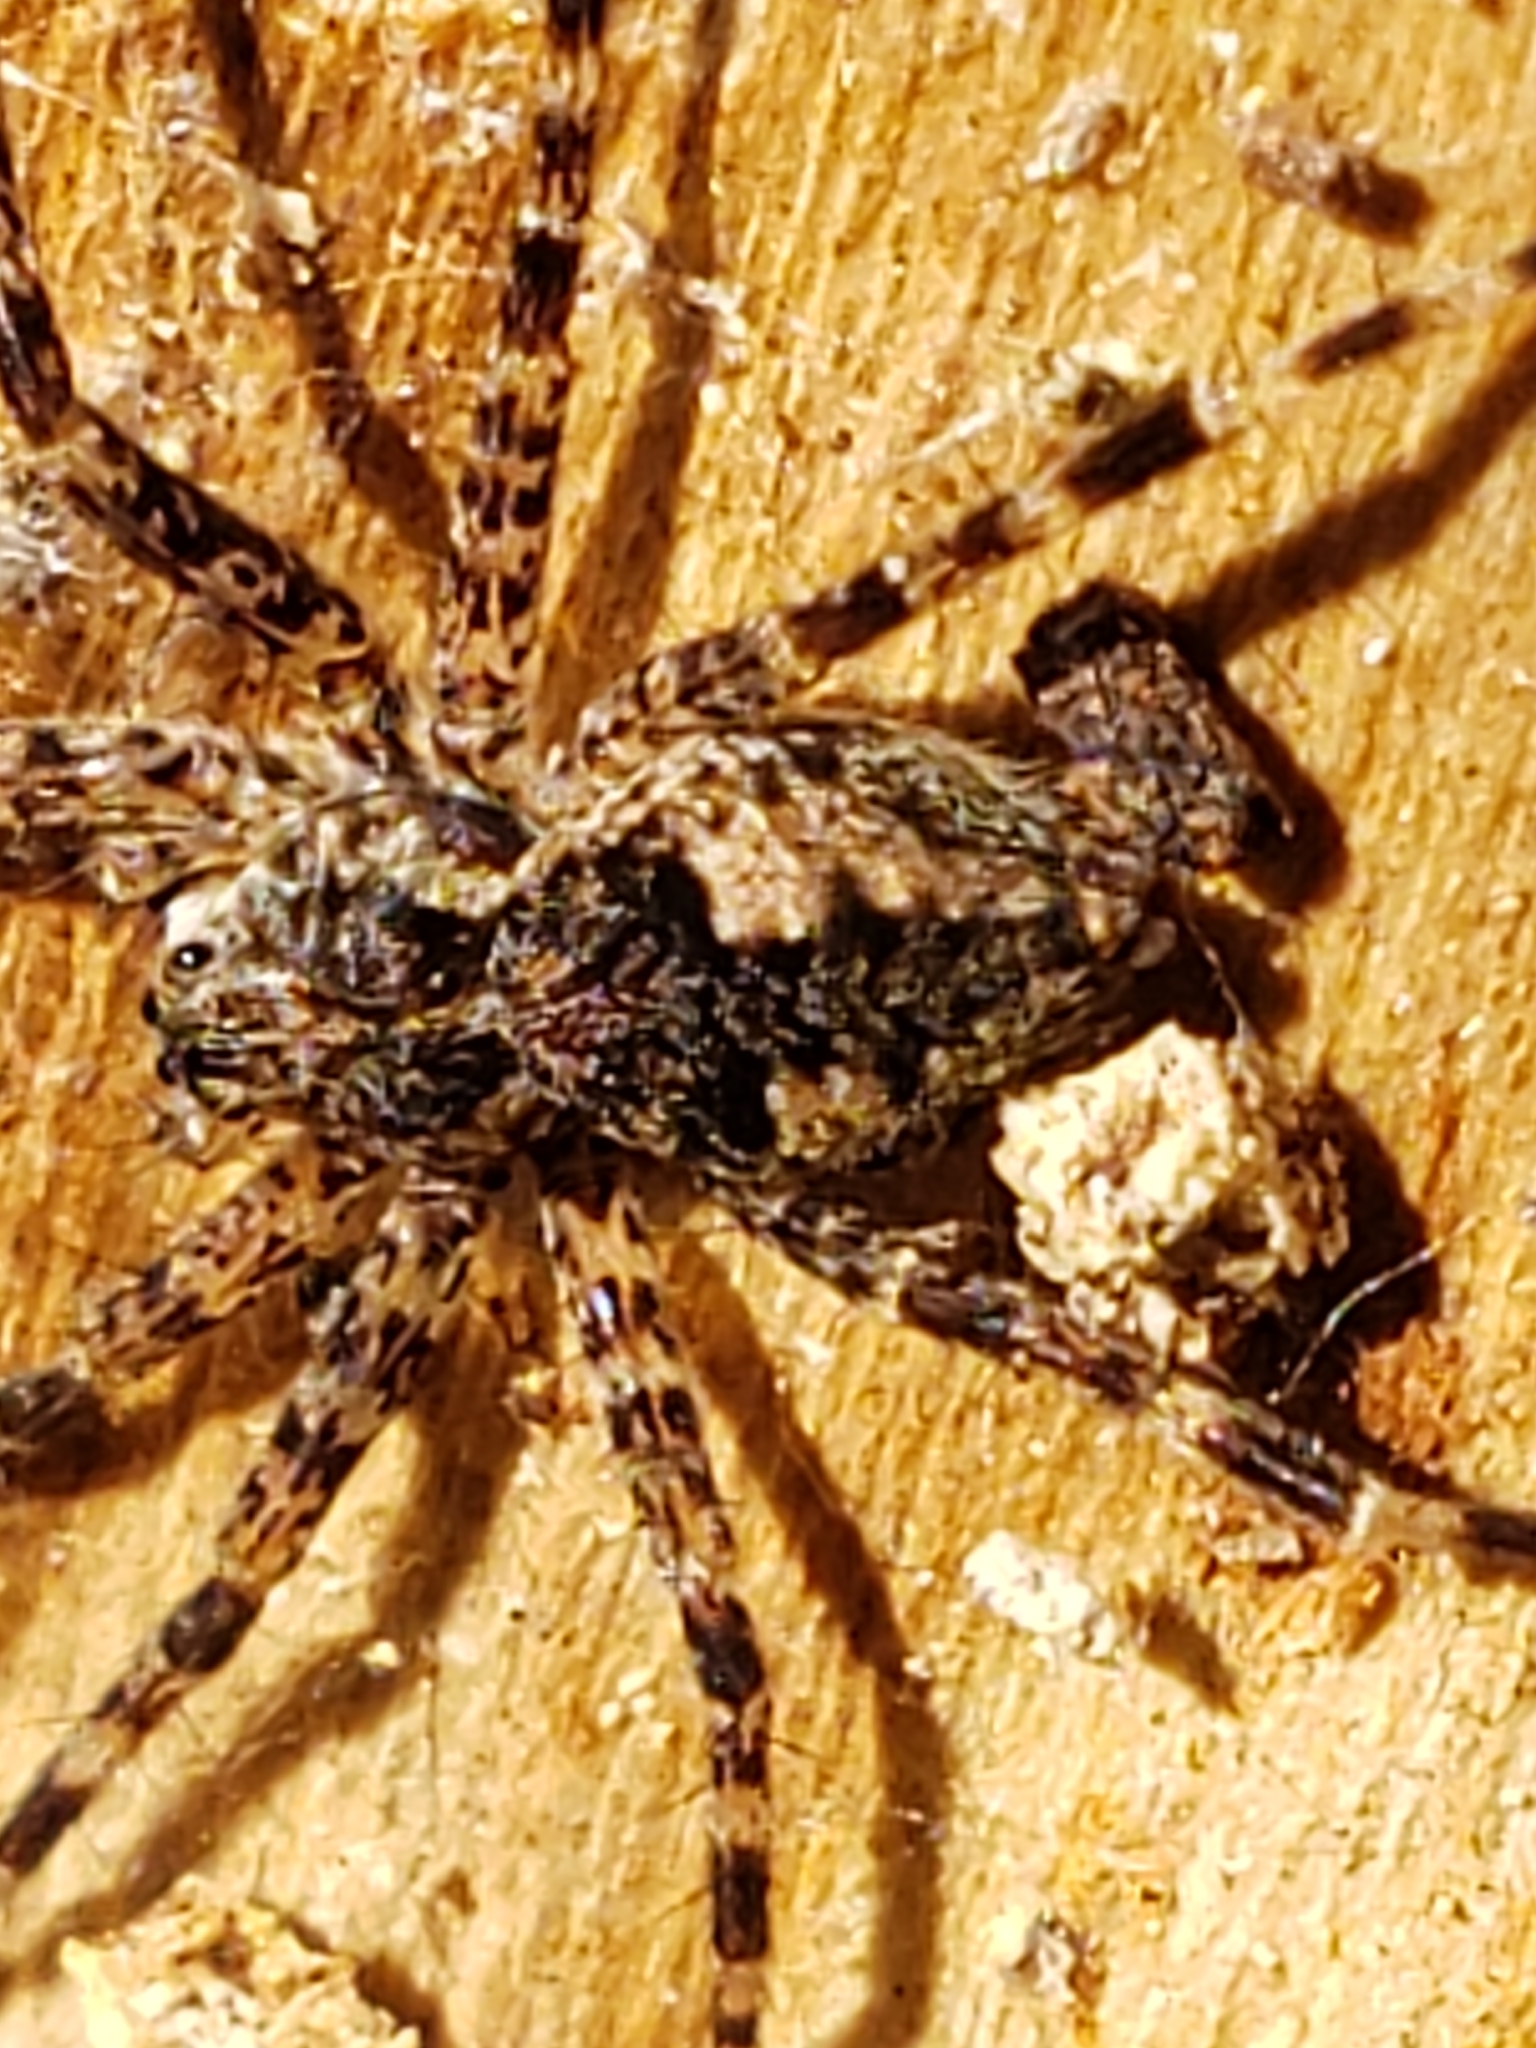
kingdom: Animalia
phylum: Arthropoda
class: Arachnida
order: Araneae
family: Pisauridae
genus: Dolomedes
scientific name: Dolomedes tenebrosus
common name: Dark fishing spider
